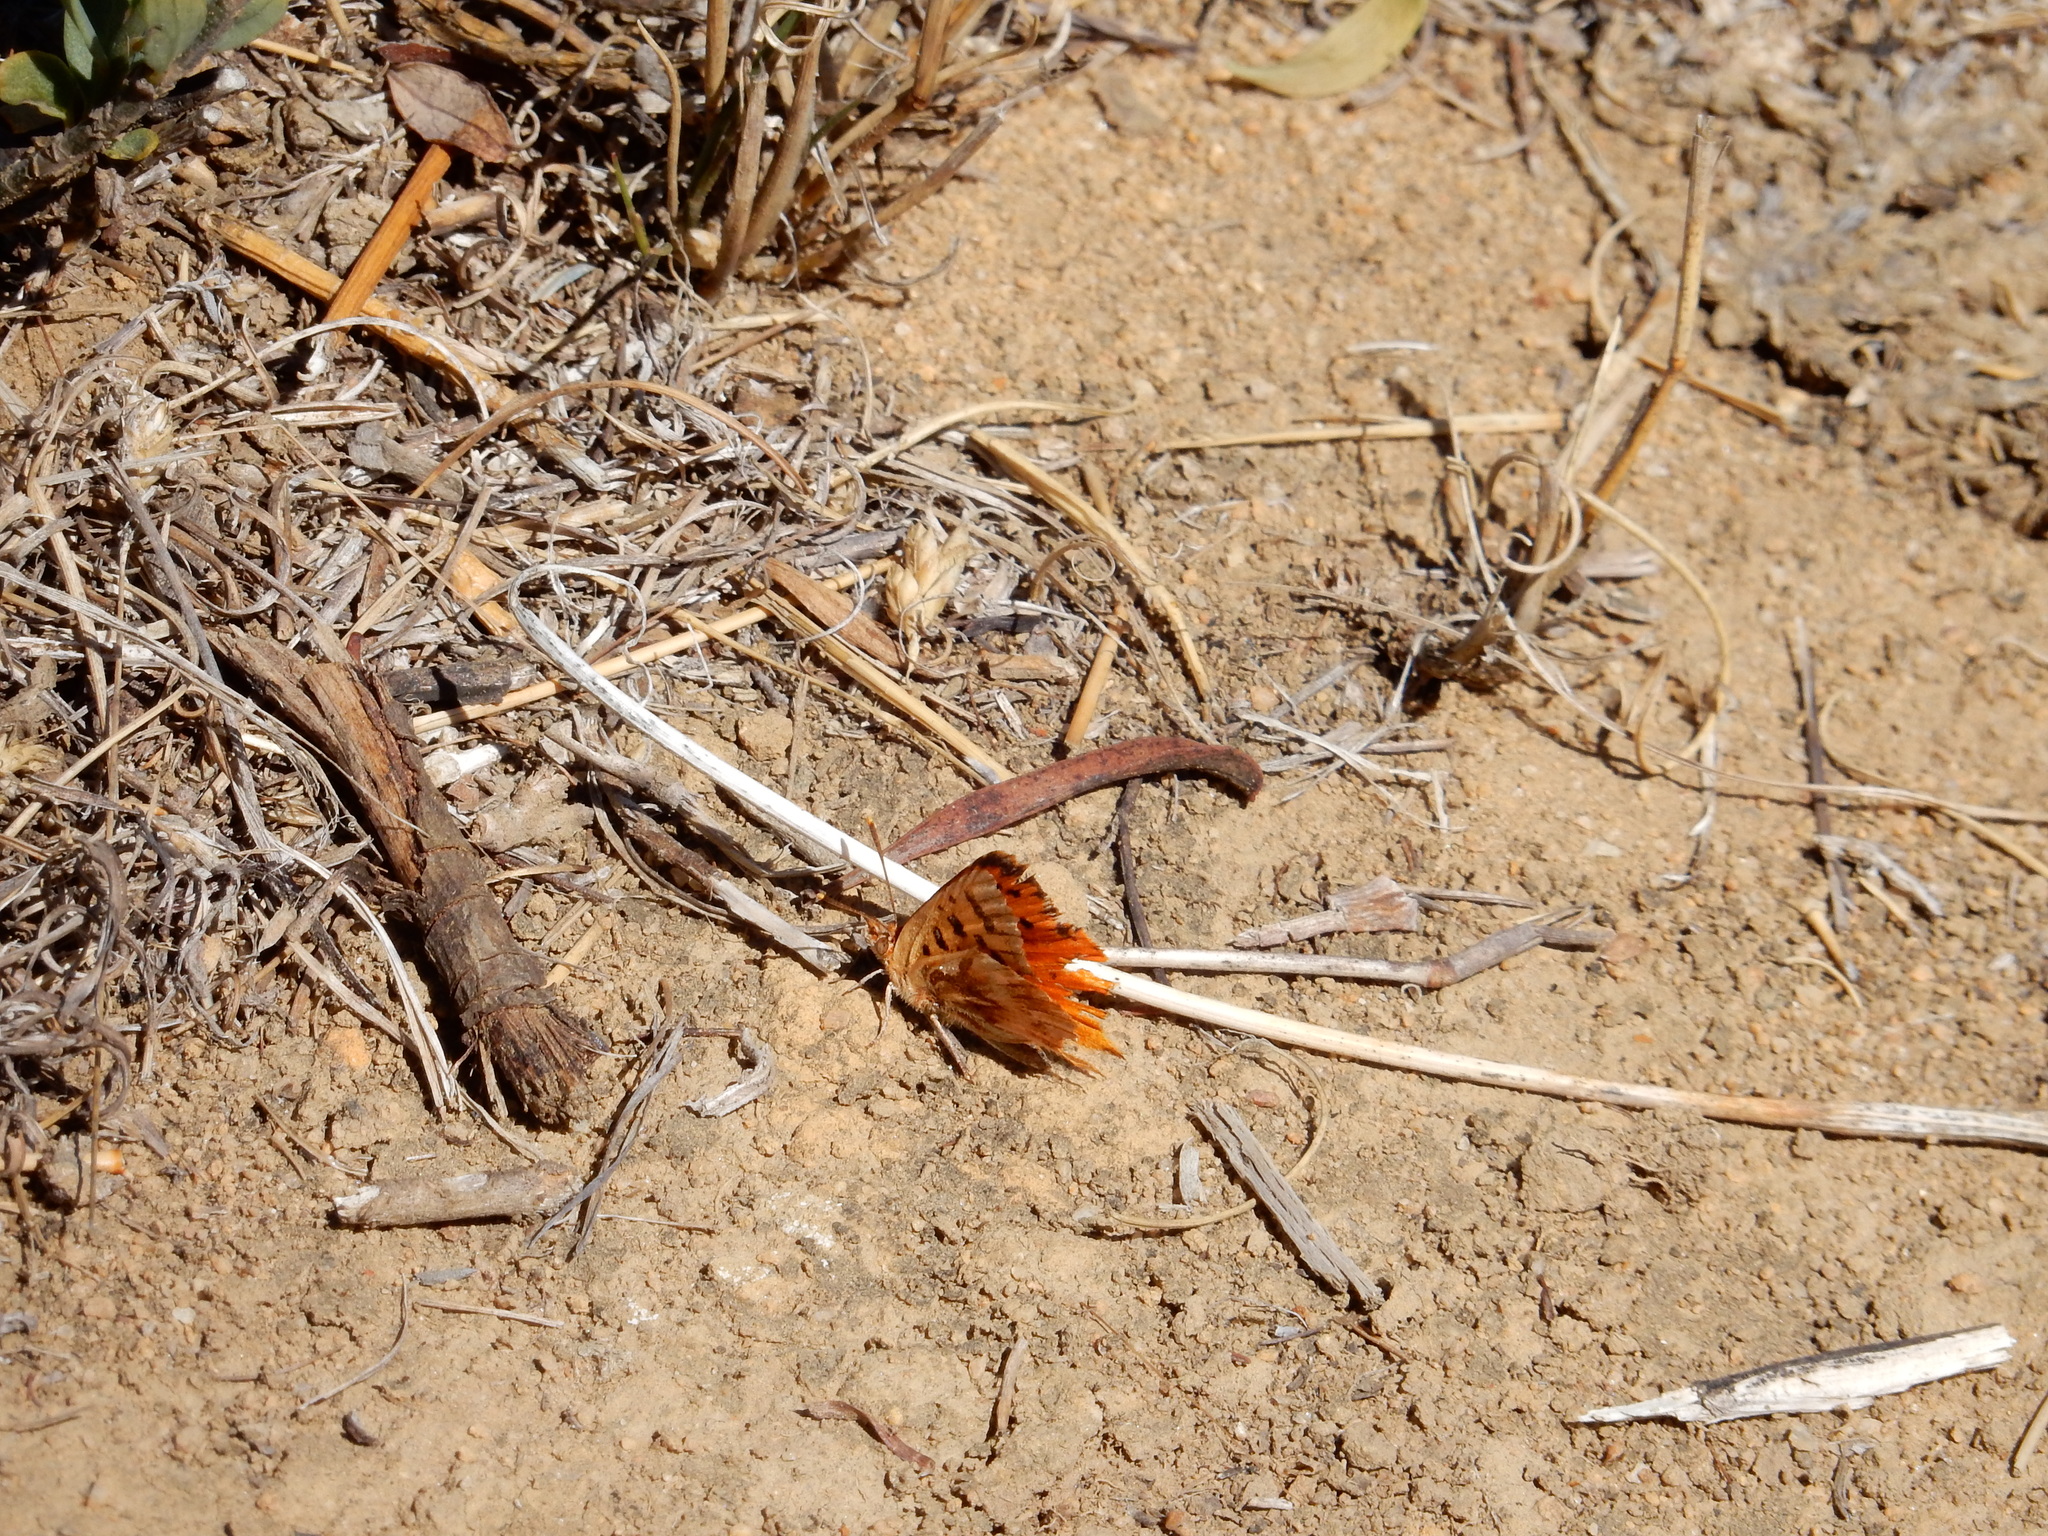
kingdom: Animalia
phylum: Arthropoda
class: Insecta
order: Lepidoptera
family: Lycaenidae
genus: Chrysoritis
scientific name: Chrysoritis
